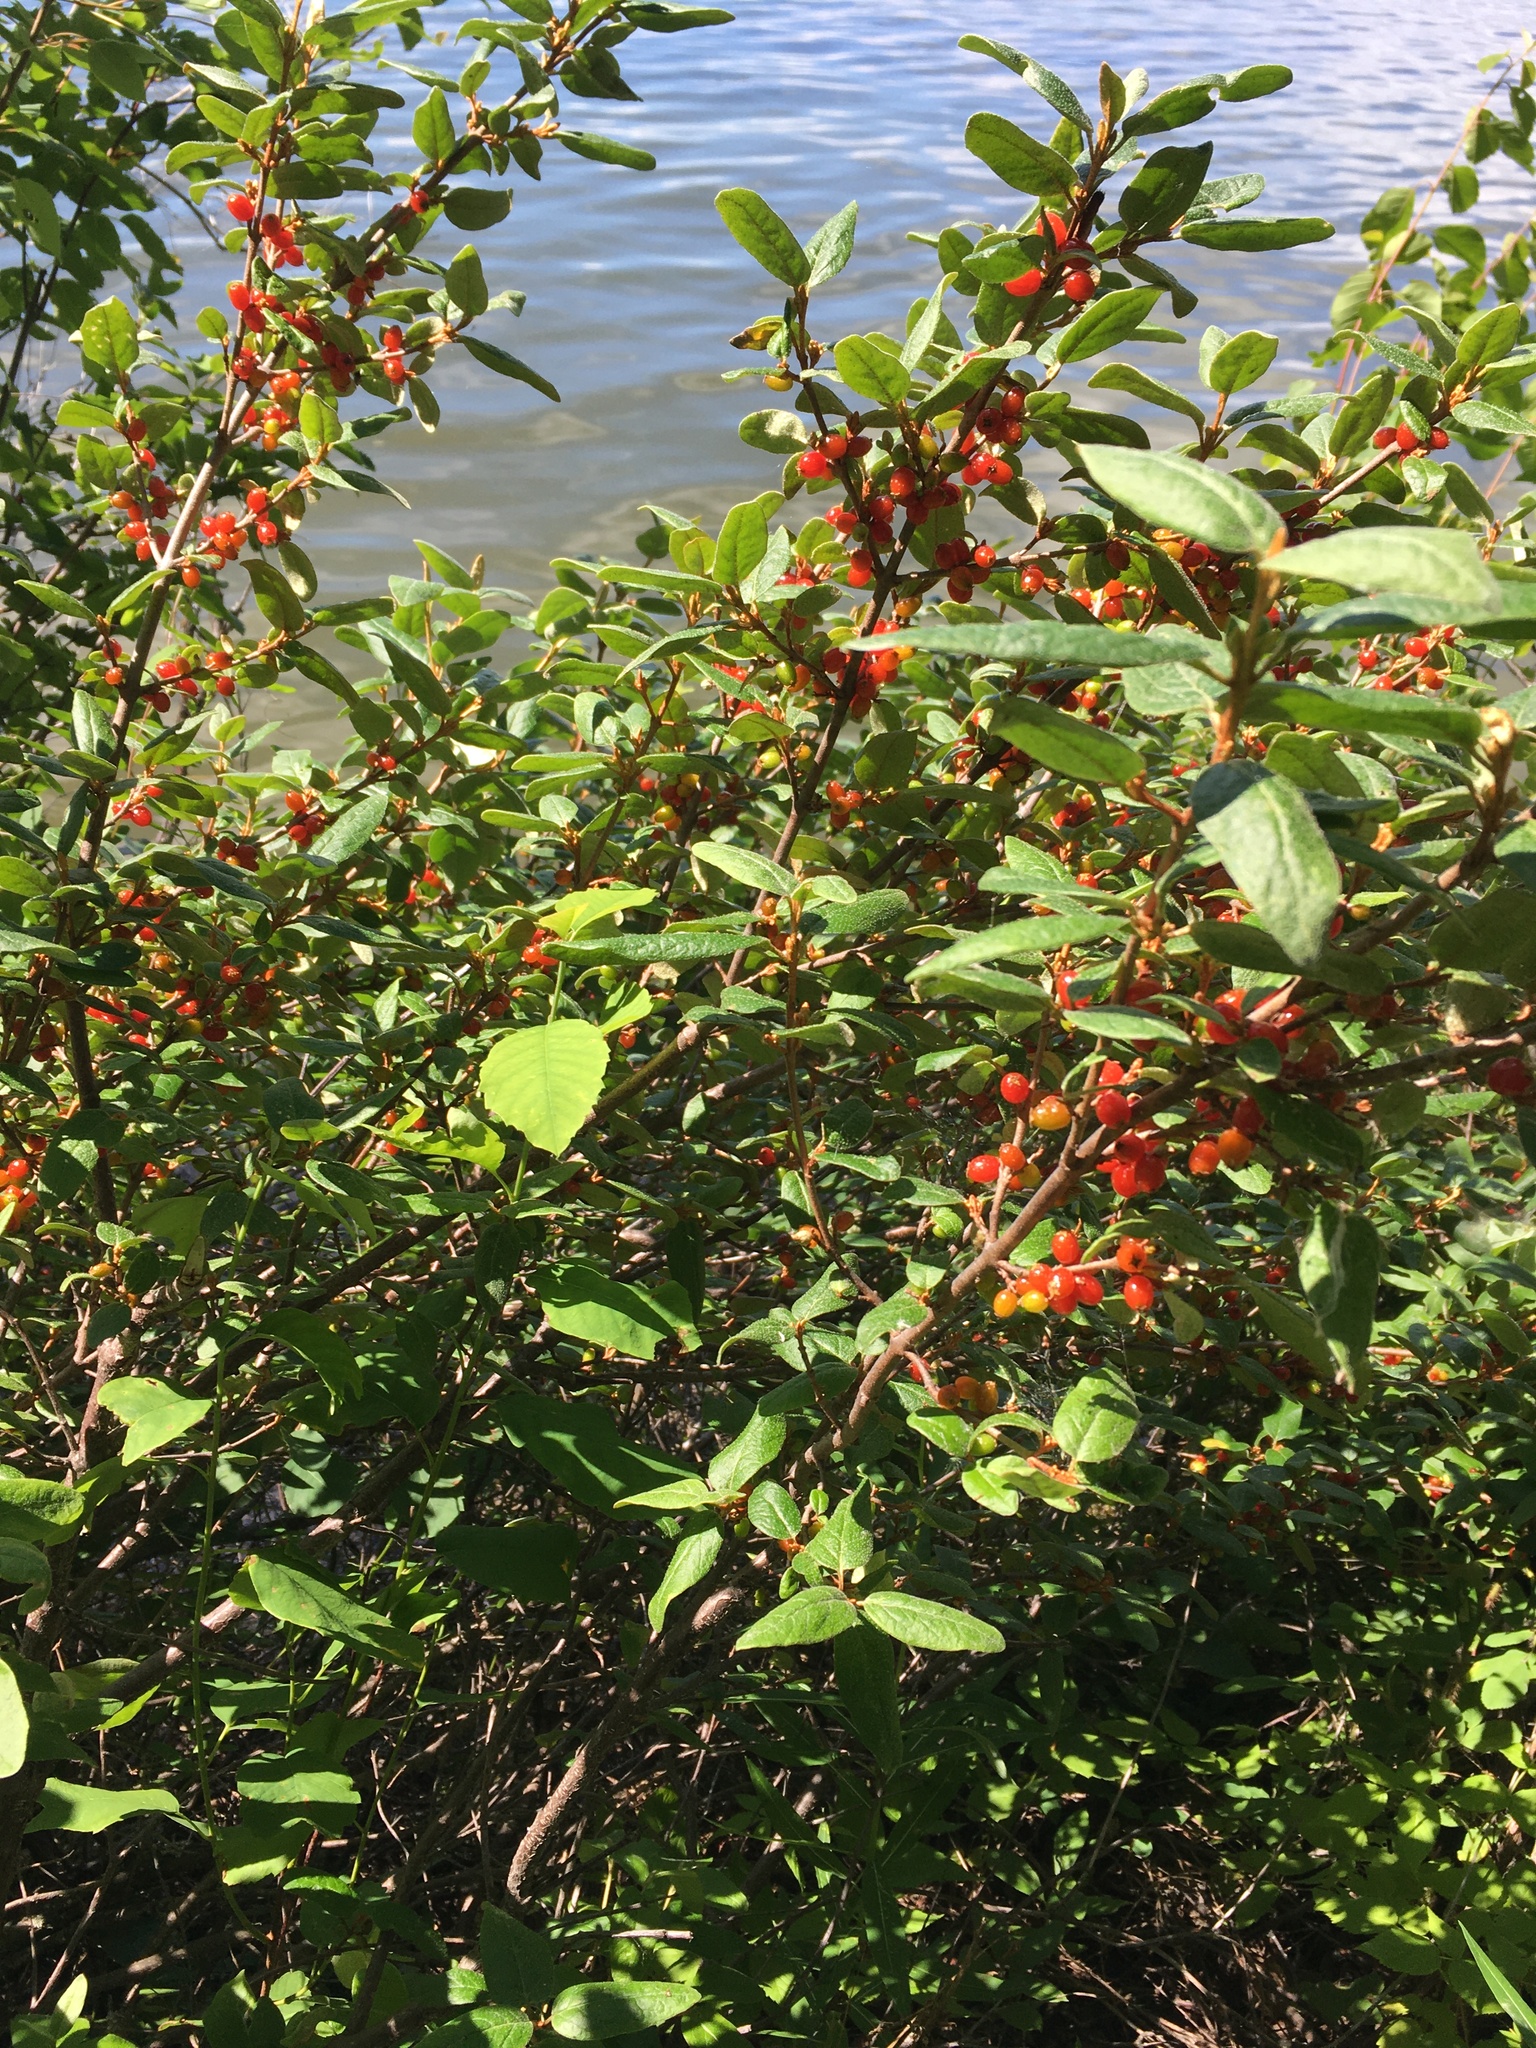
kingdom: Plantae
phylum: Tracheophyta
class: Magnoliopsida
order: Rosales
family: Elaeagnaceae
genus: Shepherdia
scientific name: Shepherdia canadensis
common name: Soapberry
